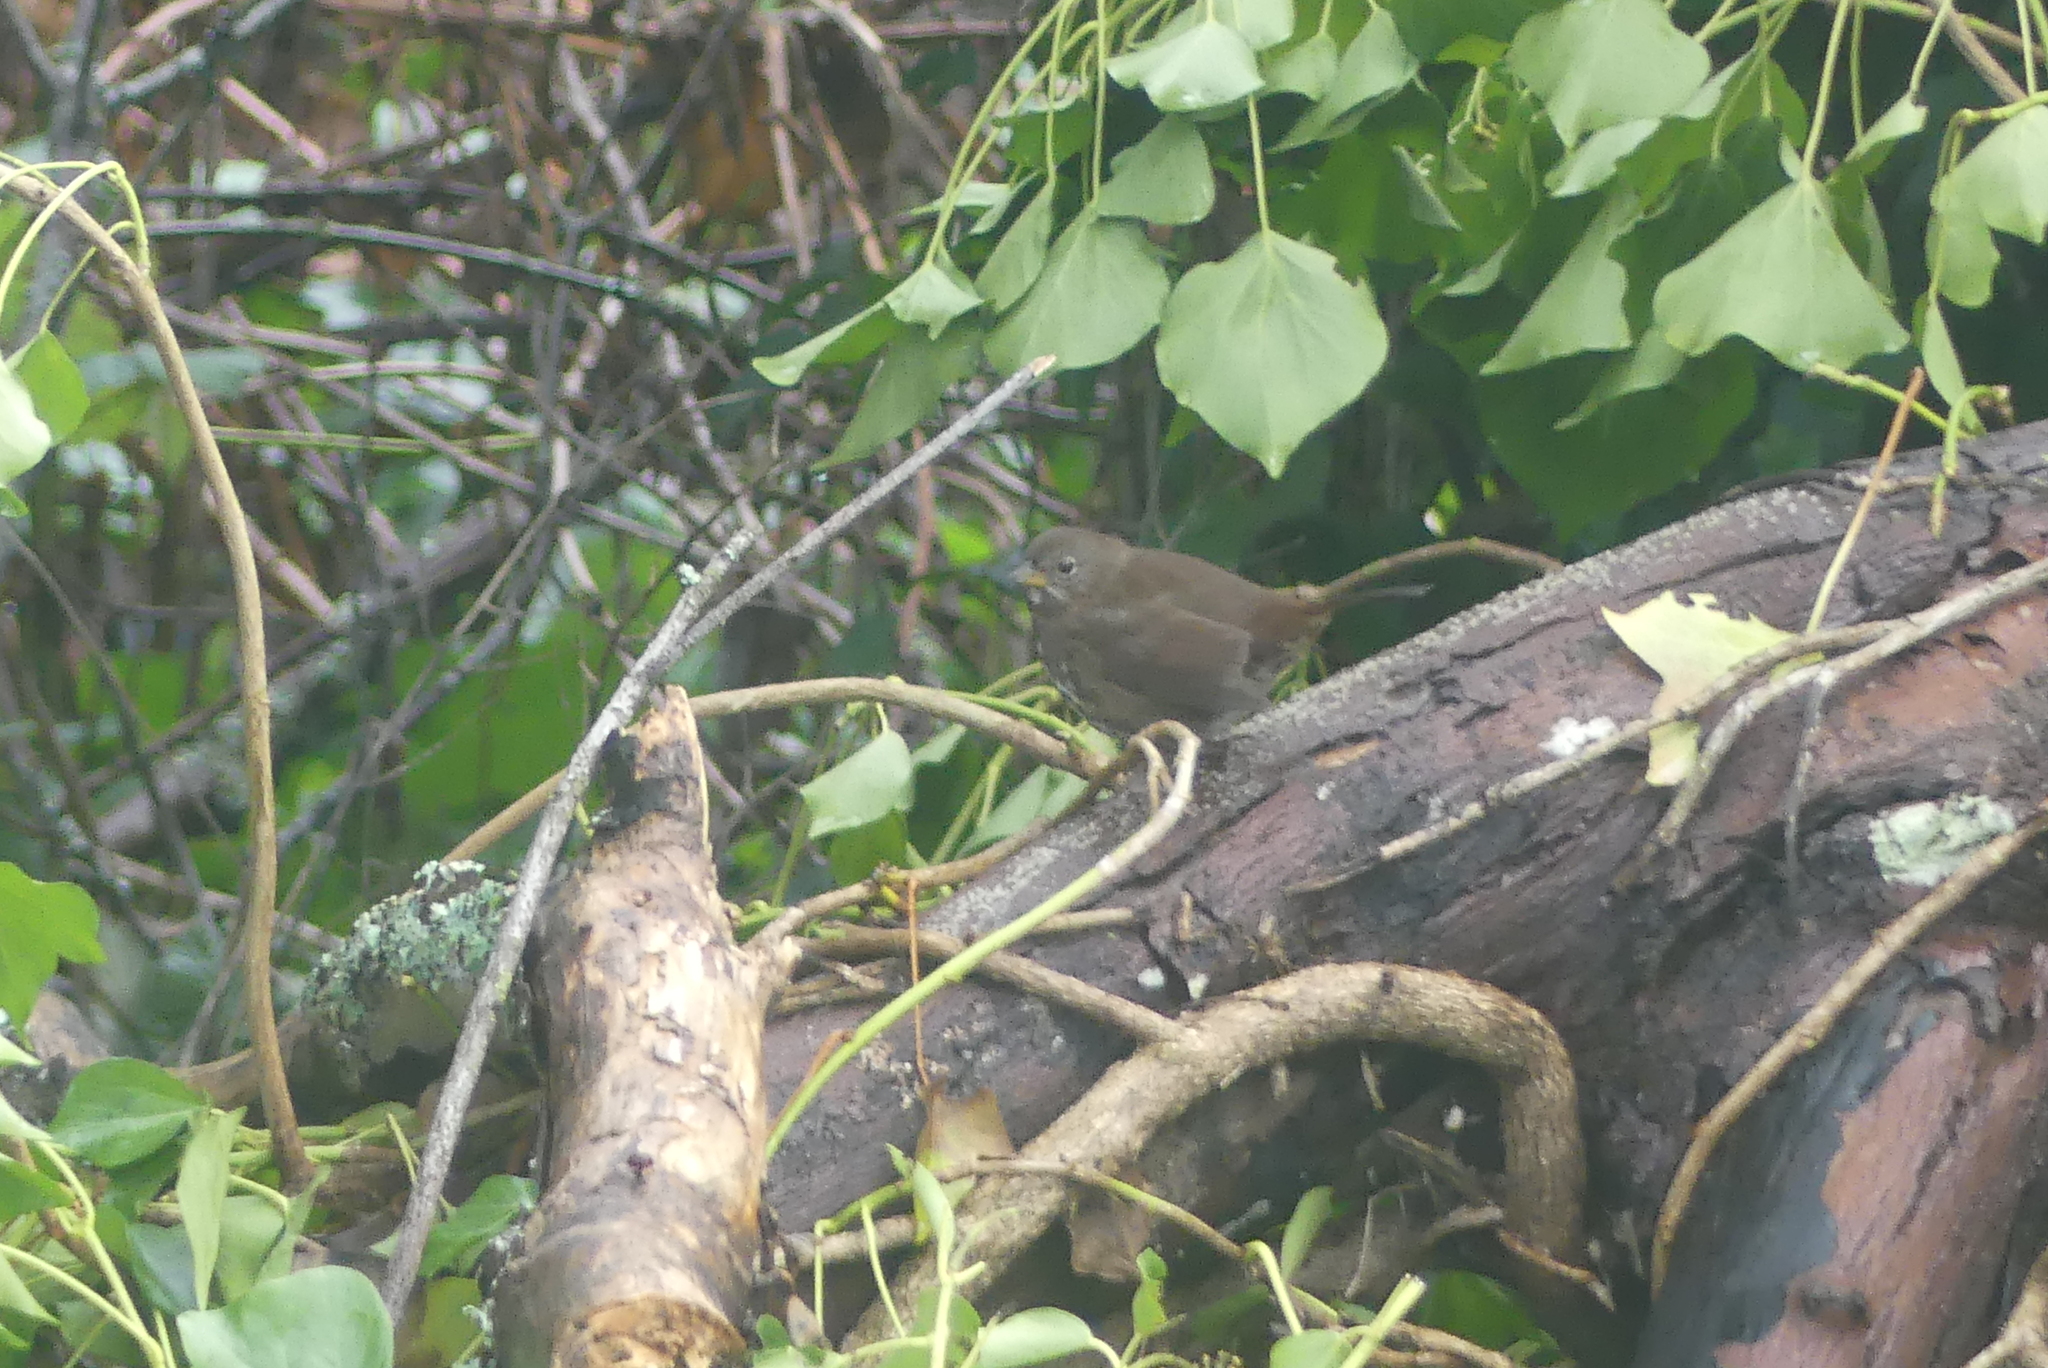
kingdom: Animalia
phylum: Chordata
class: Aves
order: Passeriformes
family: Passerellidae
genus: Passerella
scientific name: Passerella iliaca
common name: Fox sparrow
